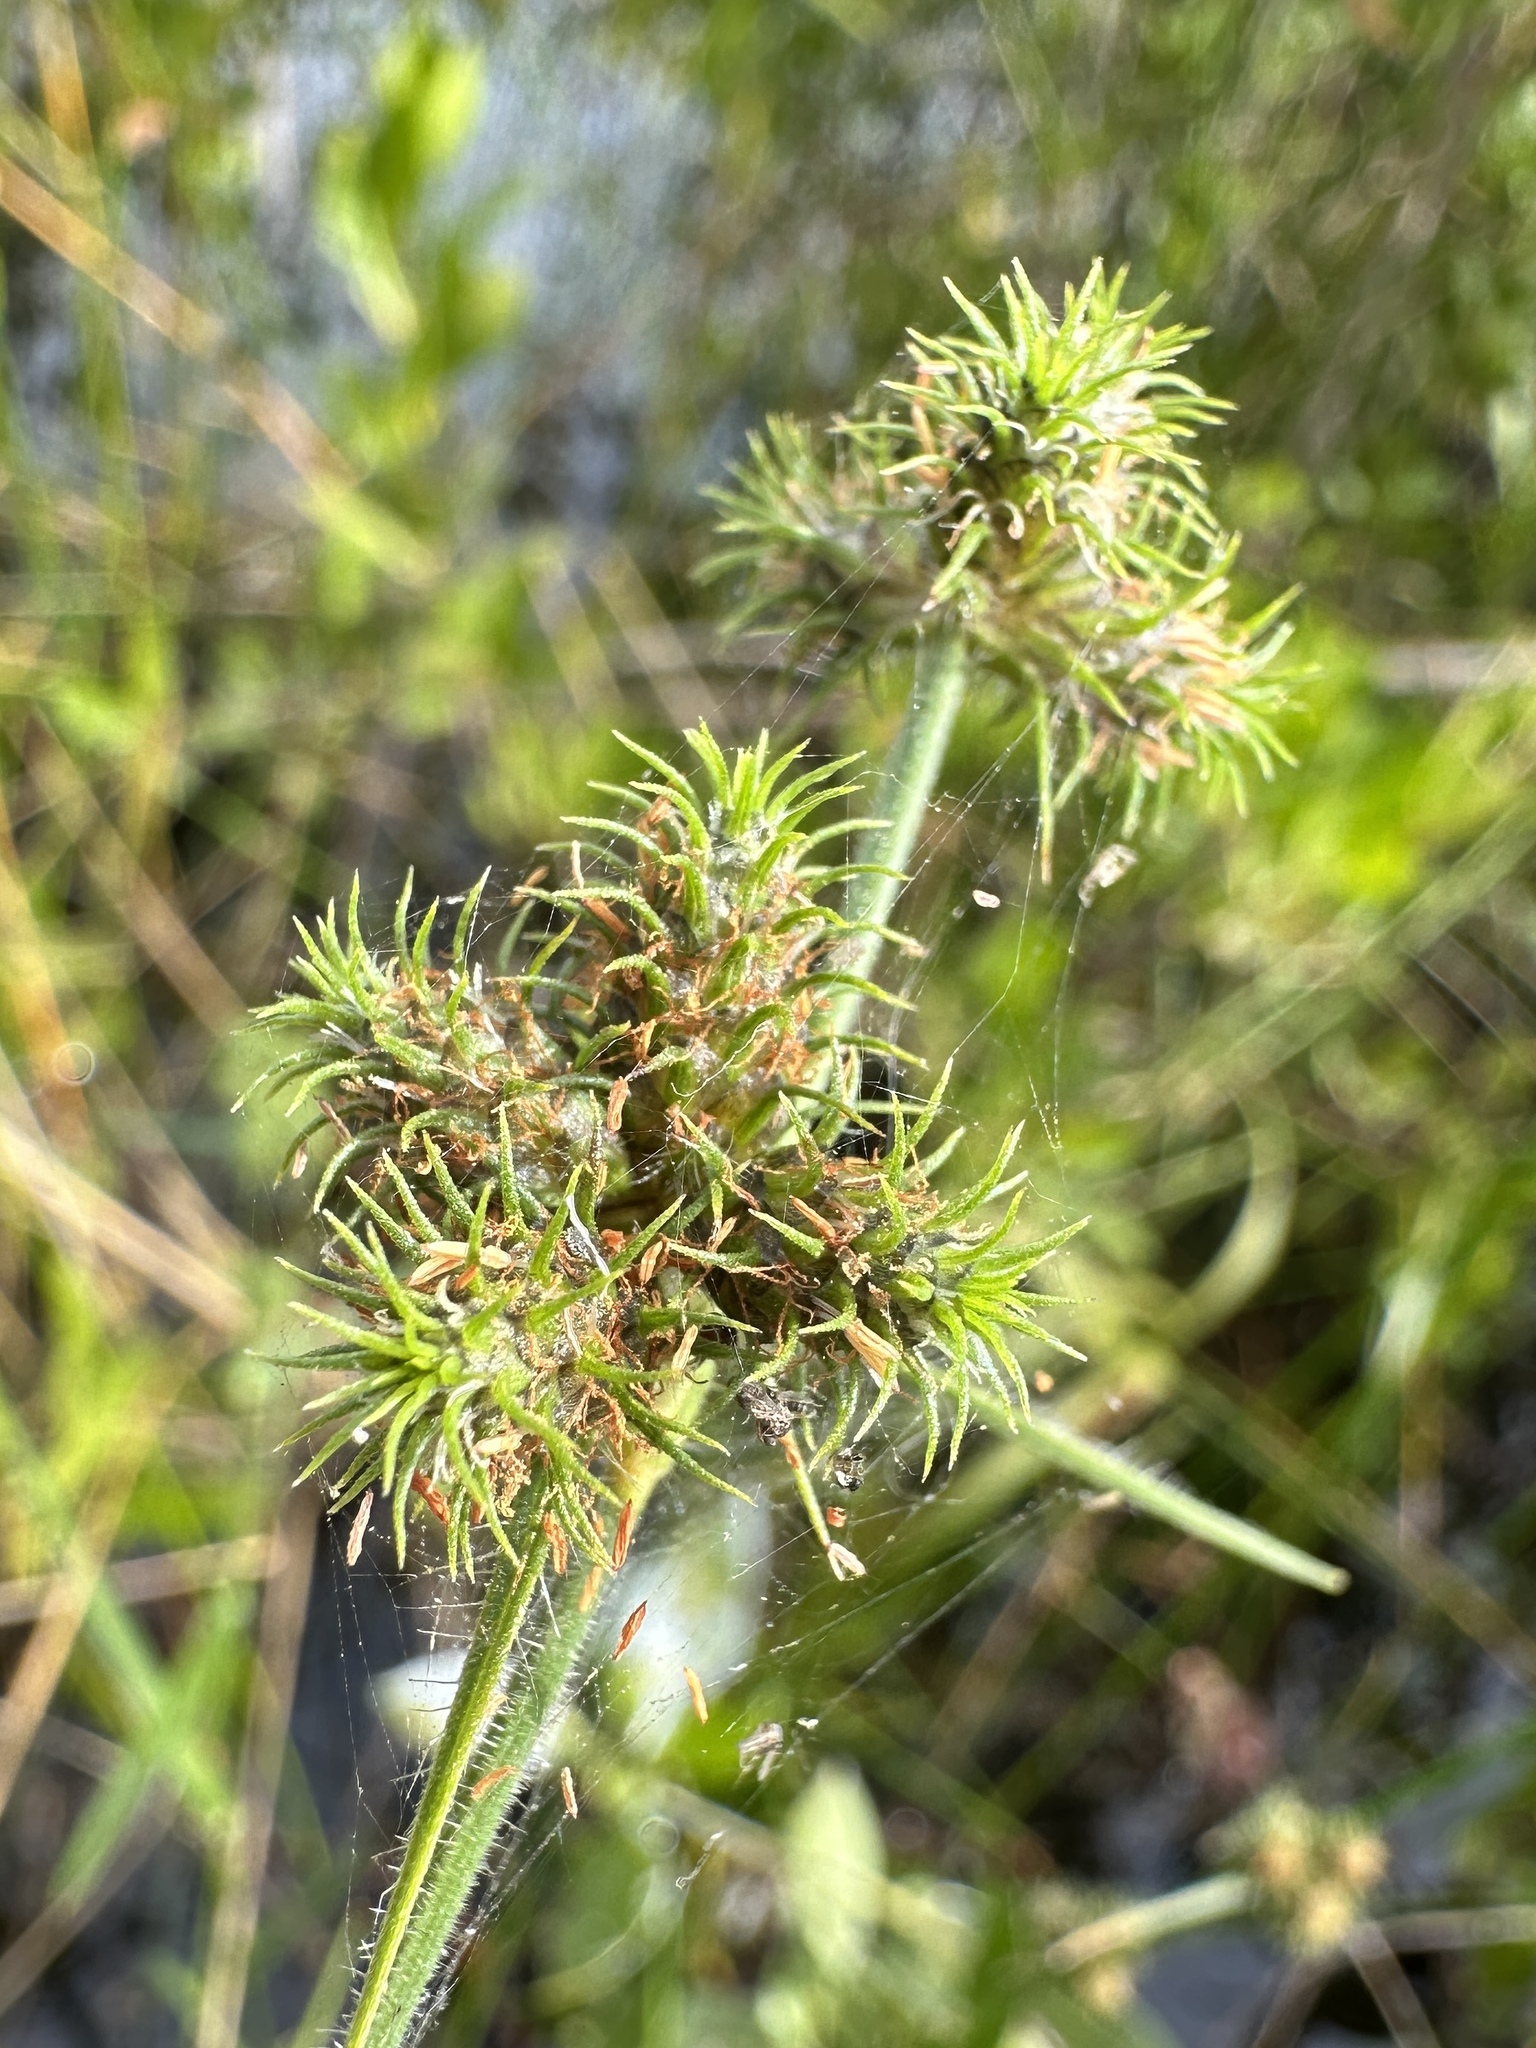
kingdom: Plantae
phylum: Tracheophyta
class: Liliopsida
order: Poales
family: Cyperaceae
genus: Fuirena
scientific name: Fuirena breviseta
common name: Saltmarsh umbrella sedge
